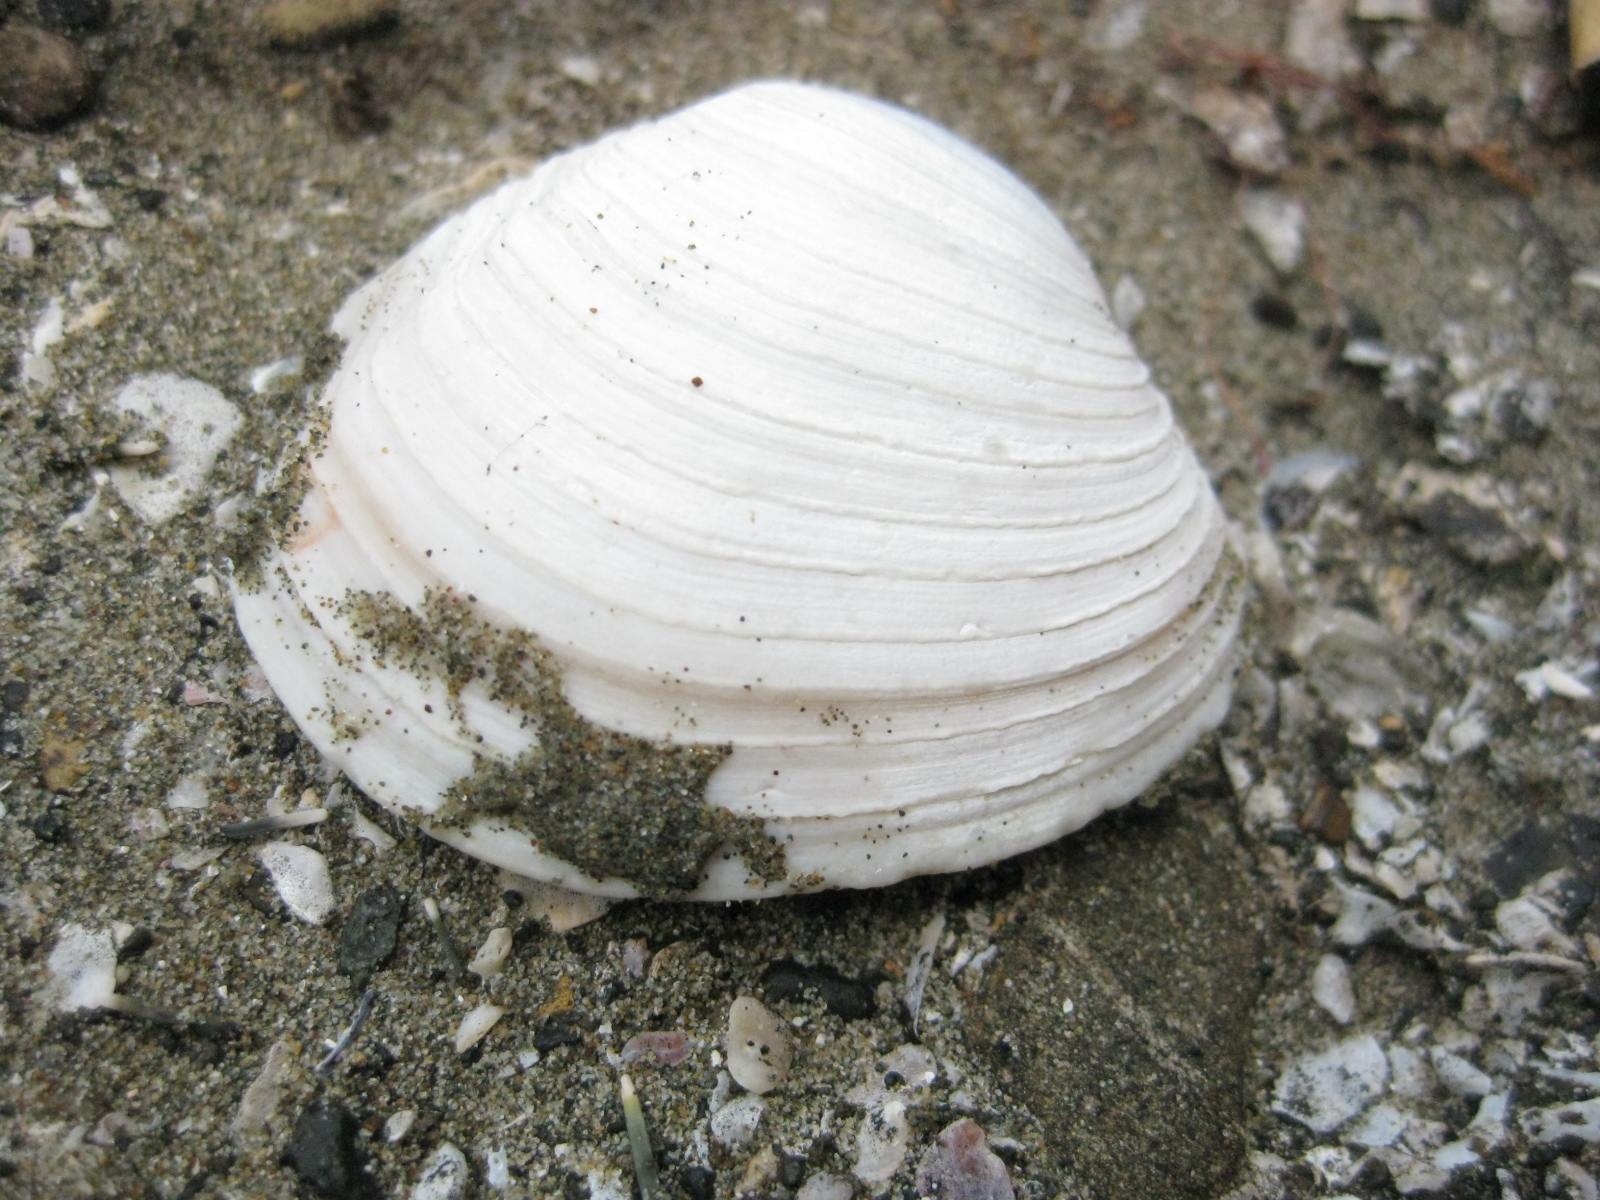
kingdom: Animalia
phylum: Mollusca
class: Bivalvia
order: Venerida
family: Veneridae
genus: Bassina
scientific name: Bassina yatei
